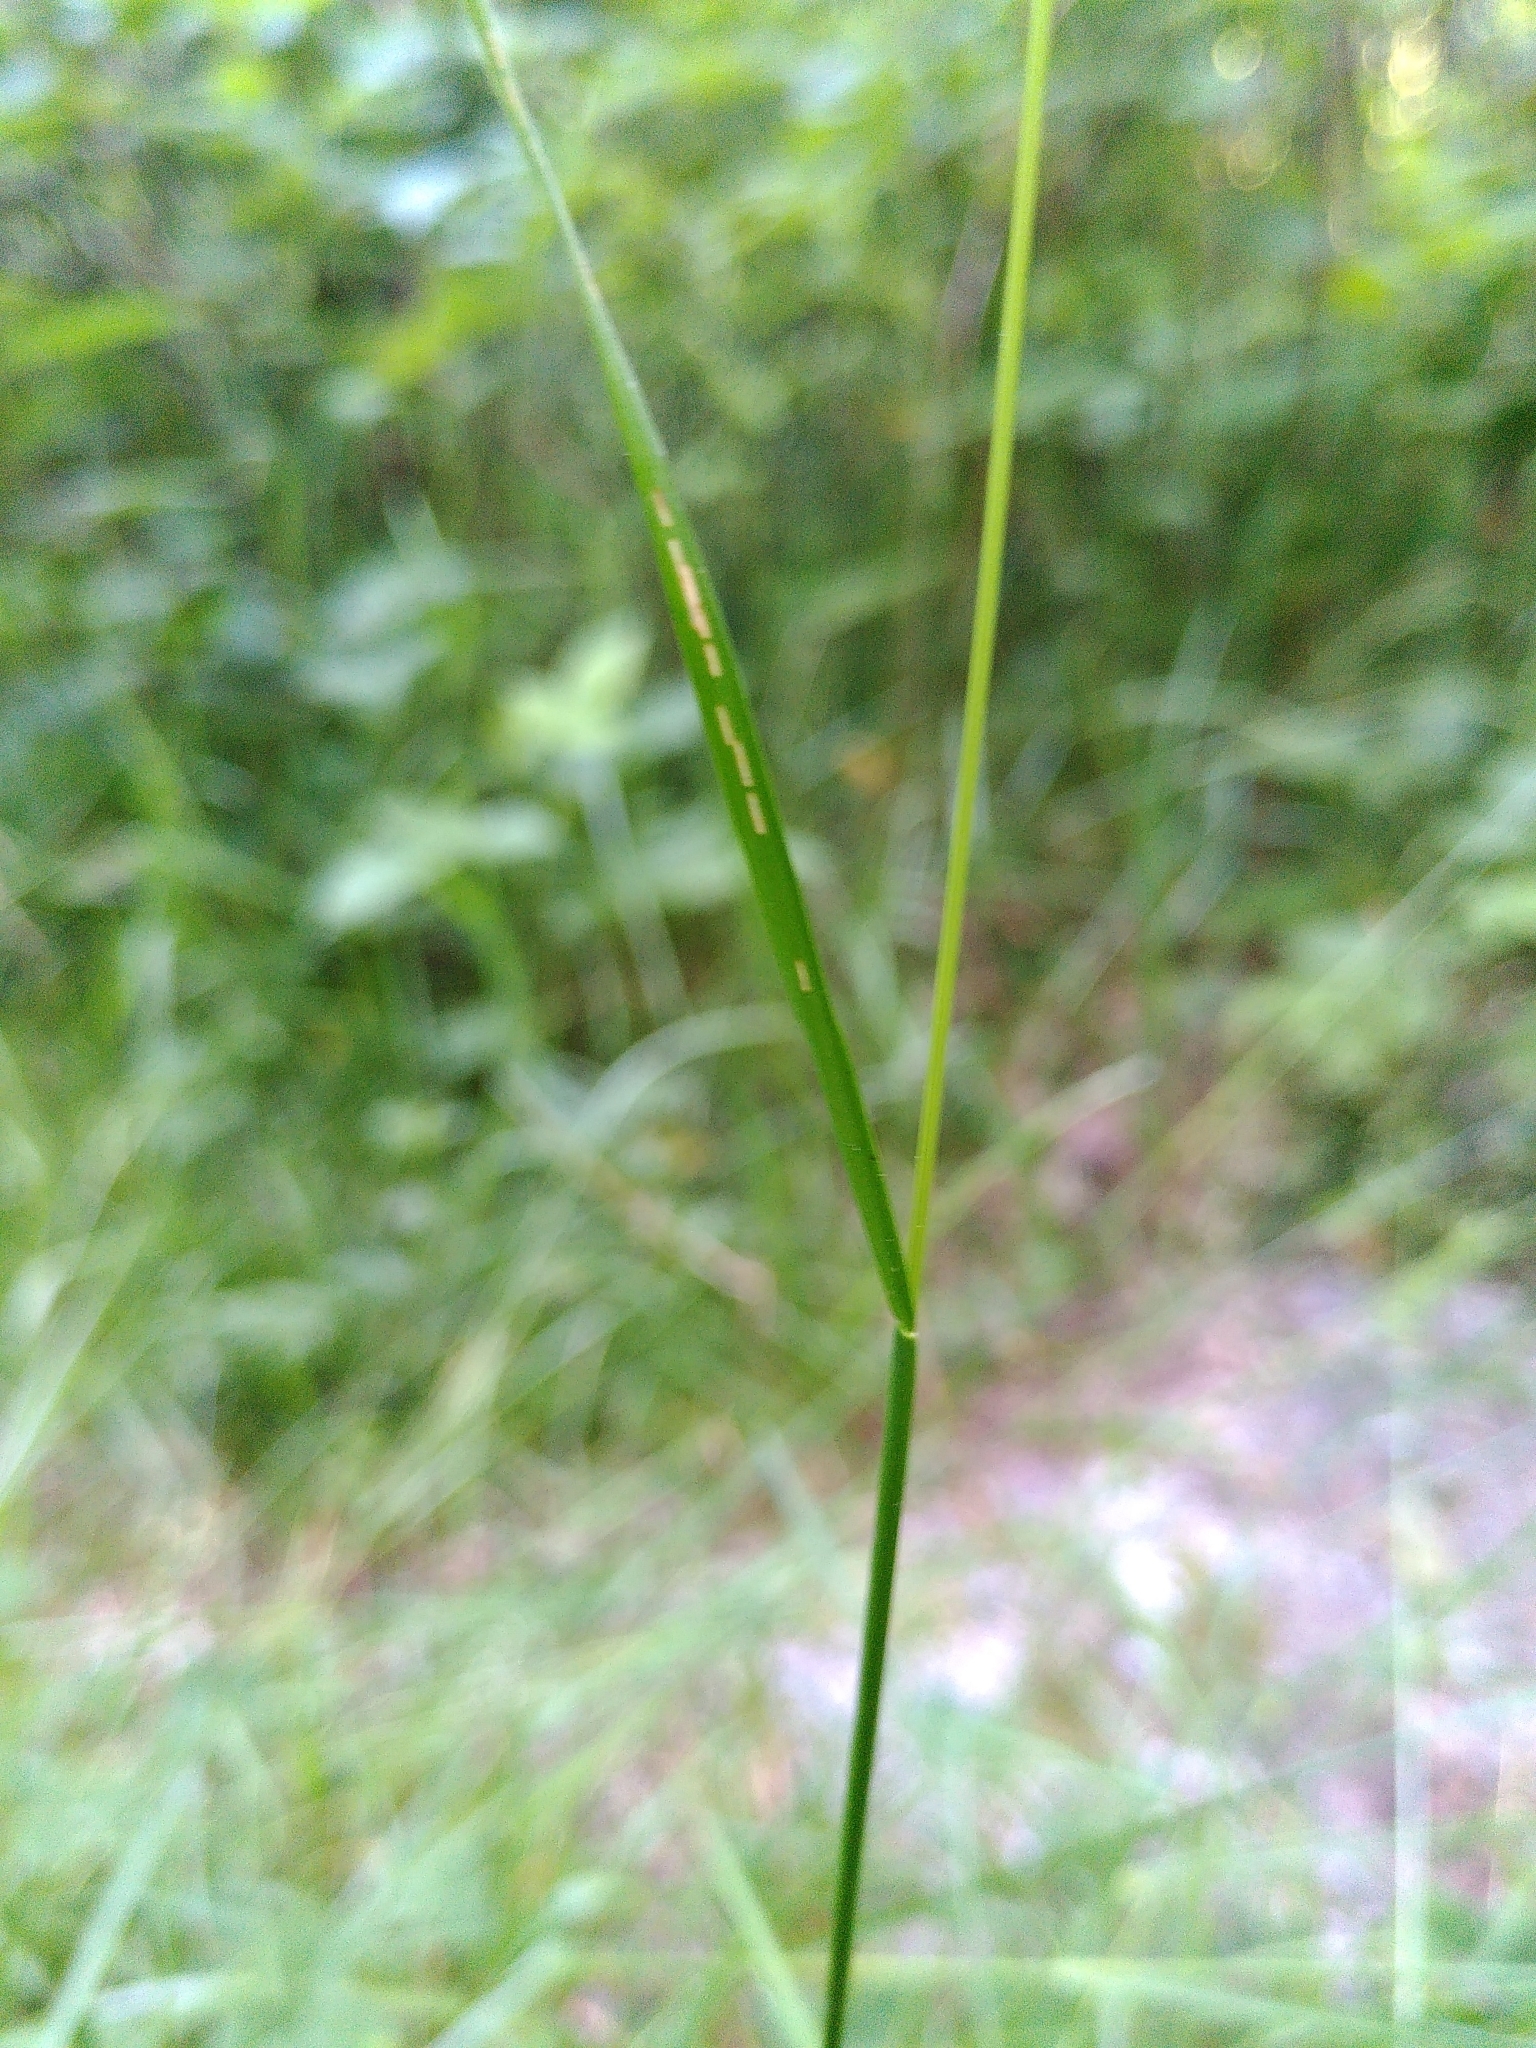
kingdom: Plantae
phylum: Tracheophyta
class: Liliopsida
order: Poales
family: Poaceae
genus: Cynosurus
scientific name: Cynosurus cristatus
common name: Crested dog's-tail
